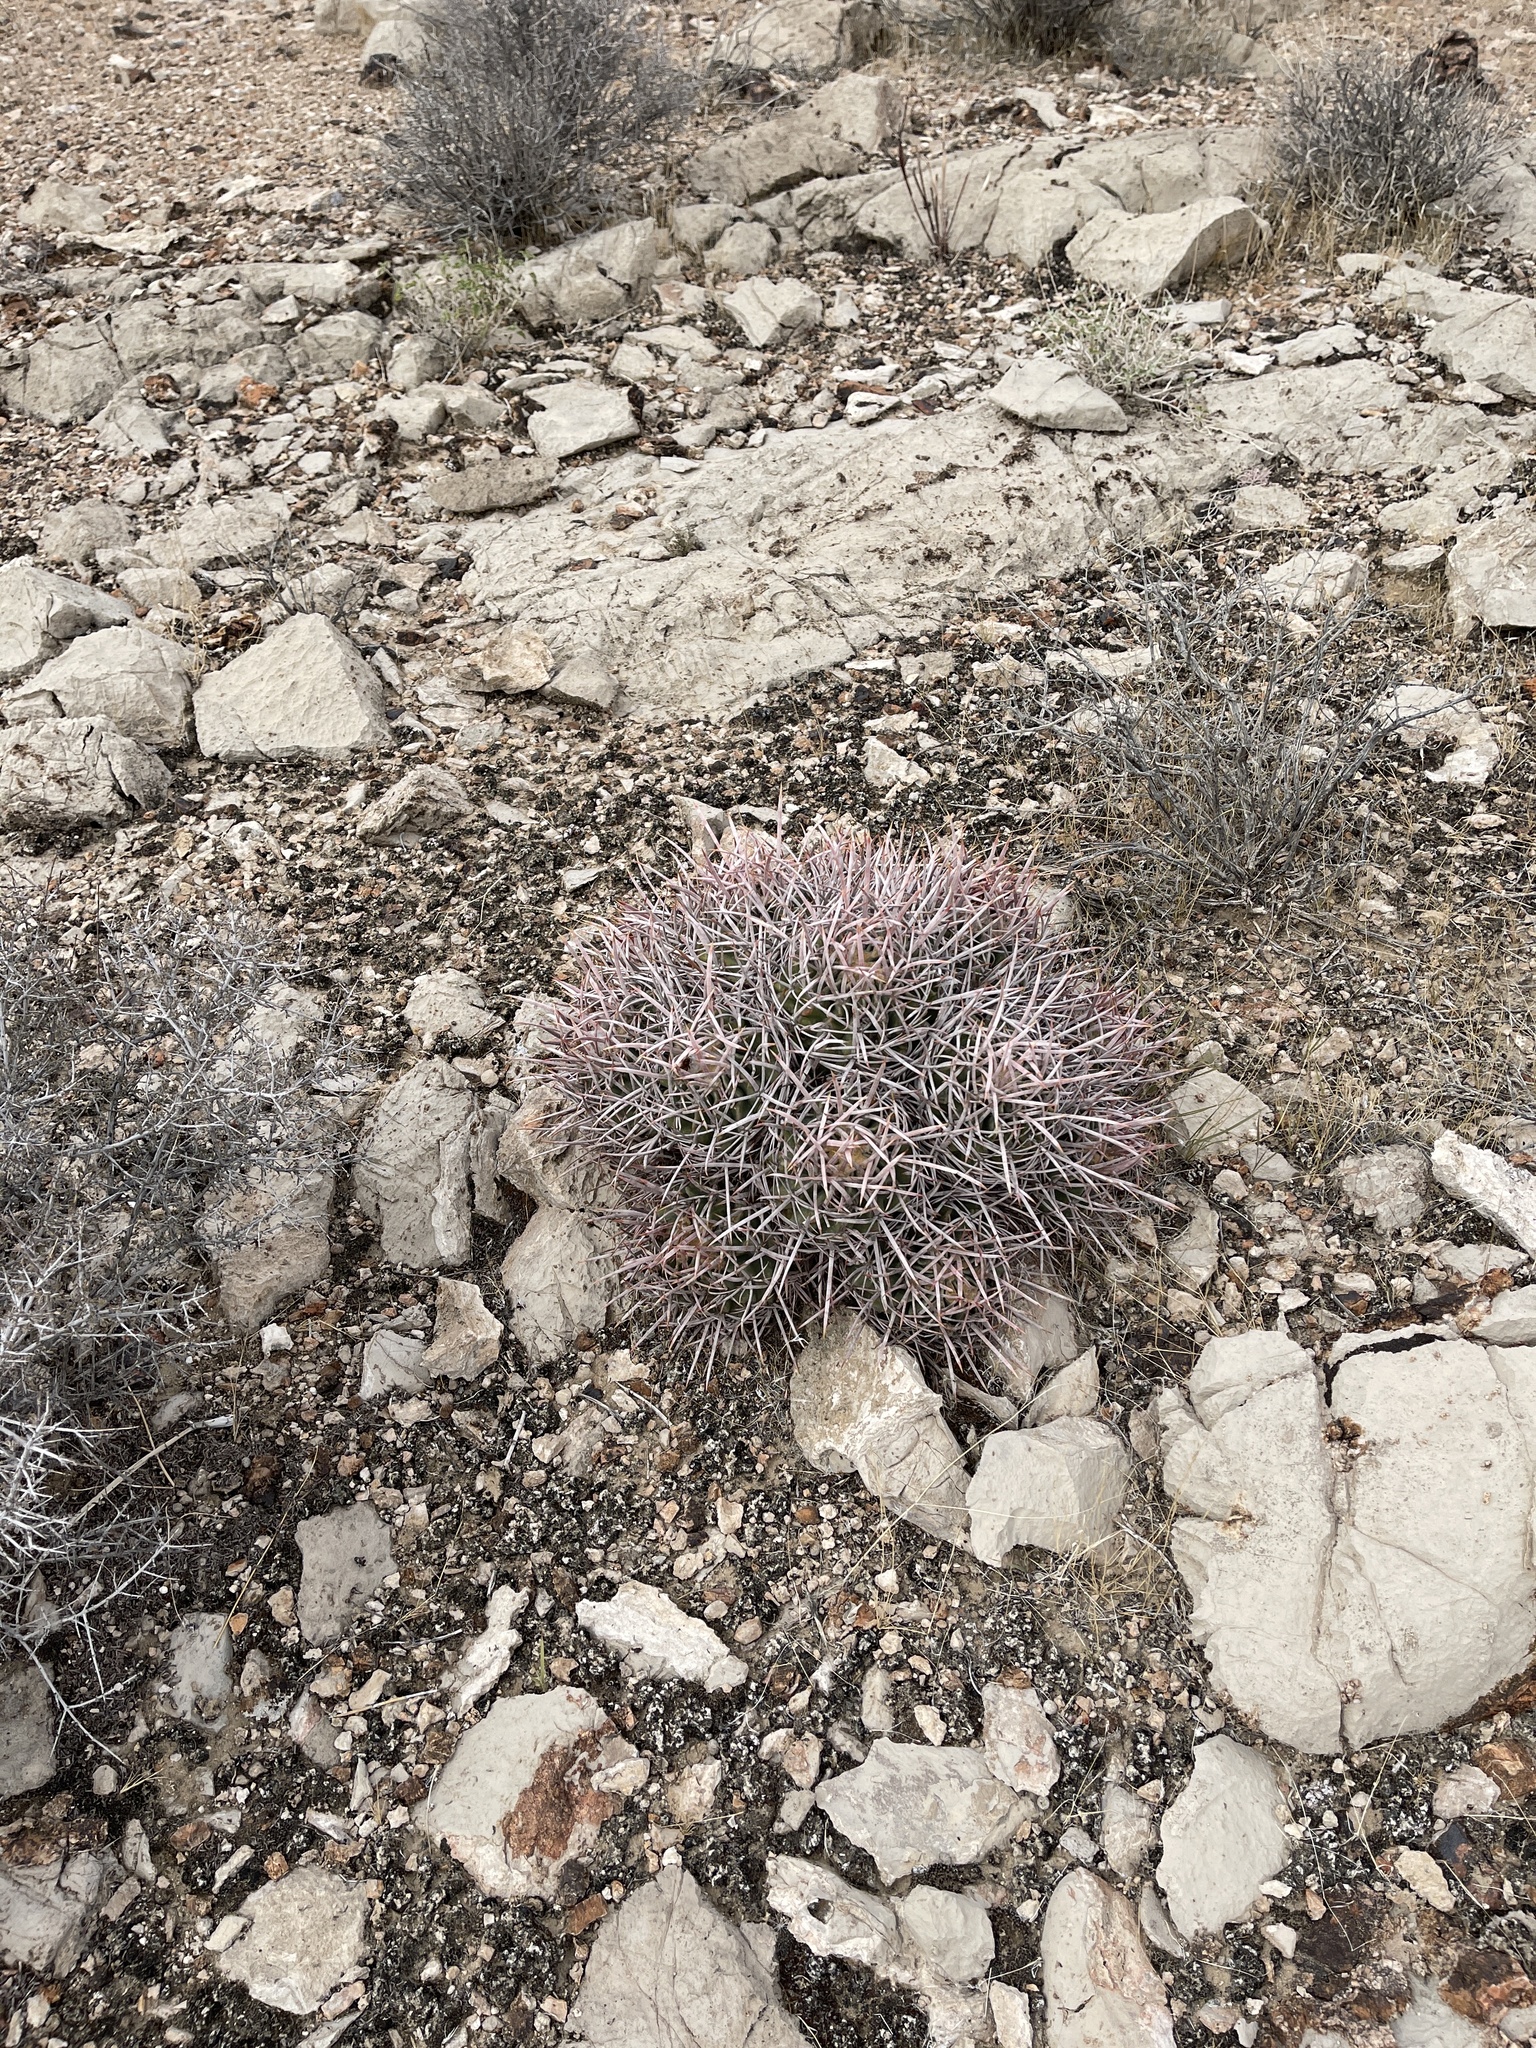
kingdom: Plantae
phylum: Tracheophyta
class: Magnoliopsida
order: Caryophyllales
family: Cactaceae
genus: Echinocactus
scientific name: Echinocactus polycephalus
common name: Cottontop cactus
